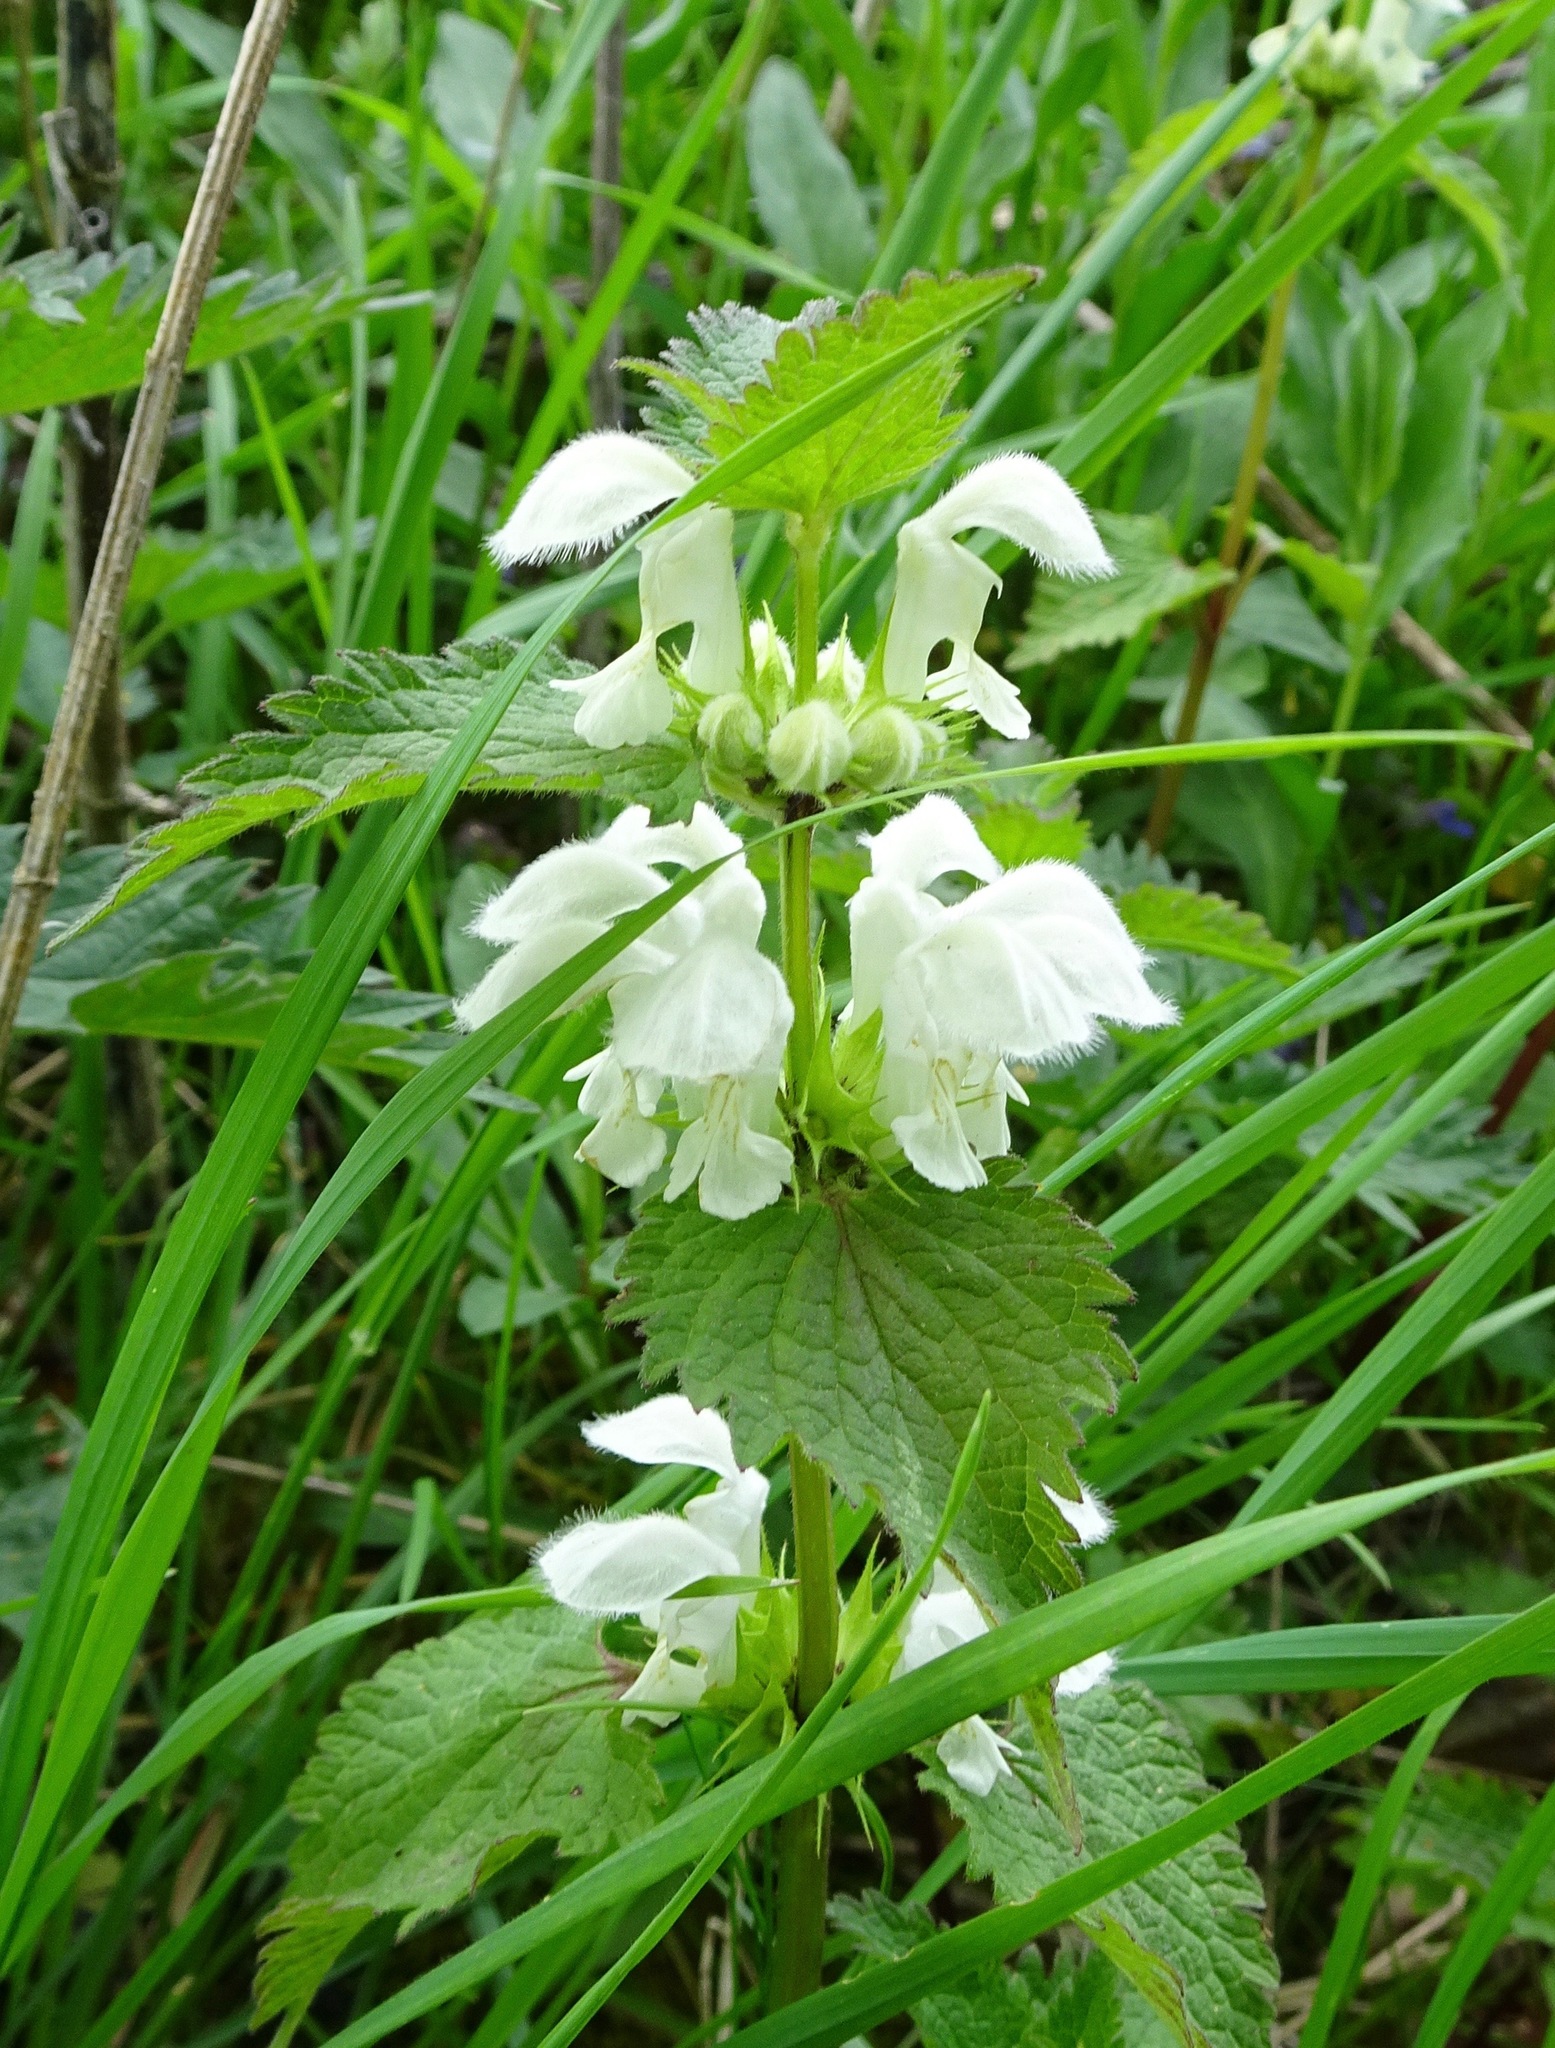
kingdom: Plantae
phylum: Tracheophyta
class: Magnoliopsida
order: Lamiales
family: Lamiaceae
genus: Lamium
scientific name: Lamium album
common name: White dead-nettle
